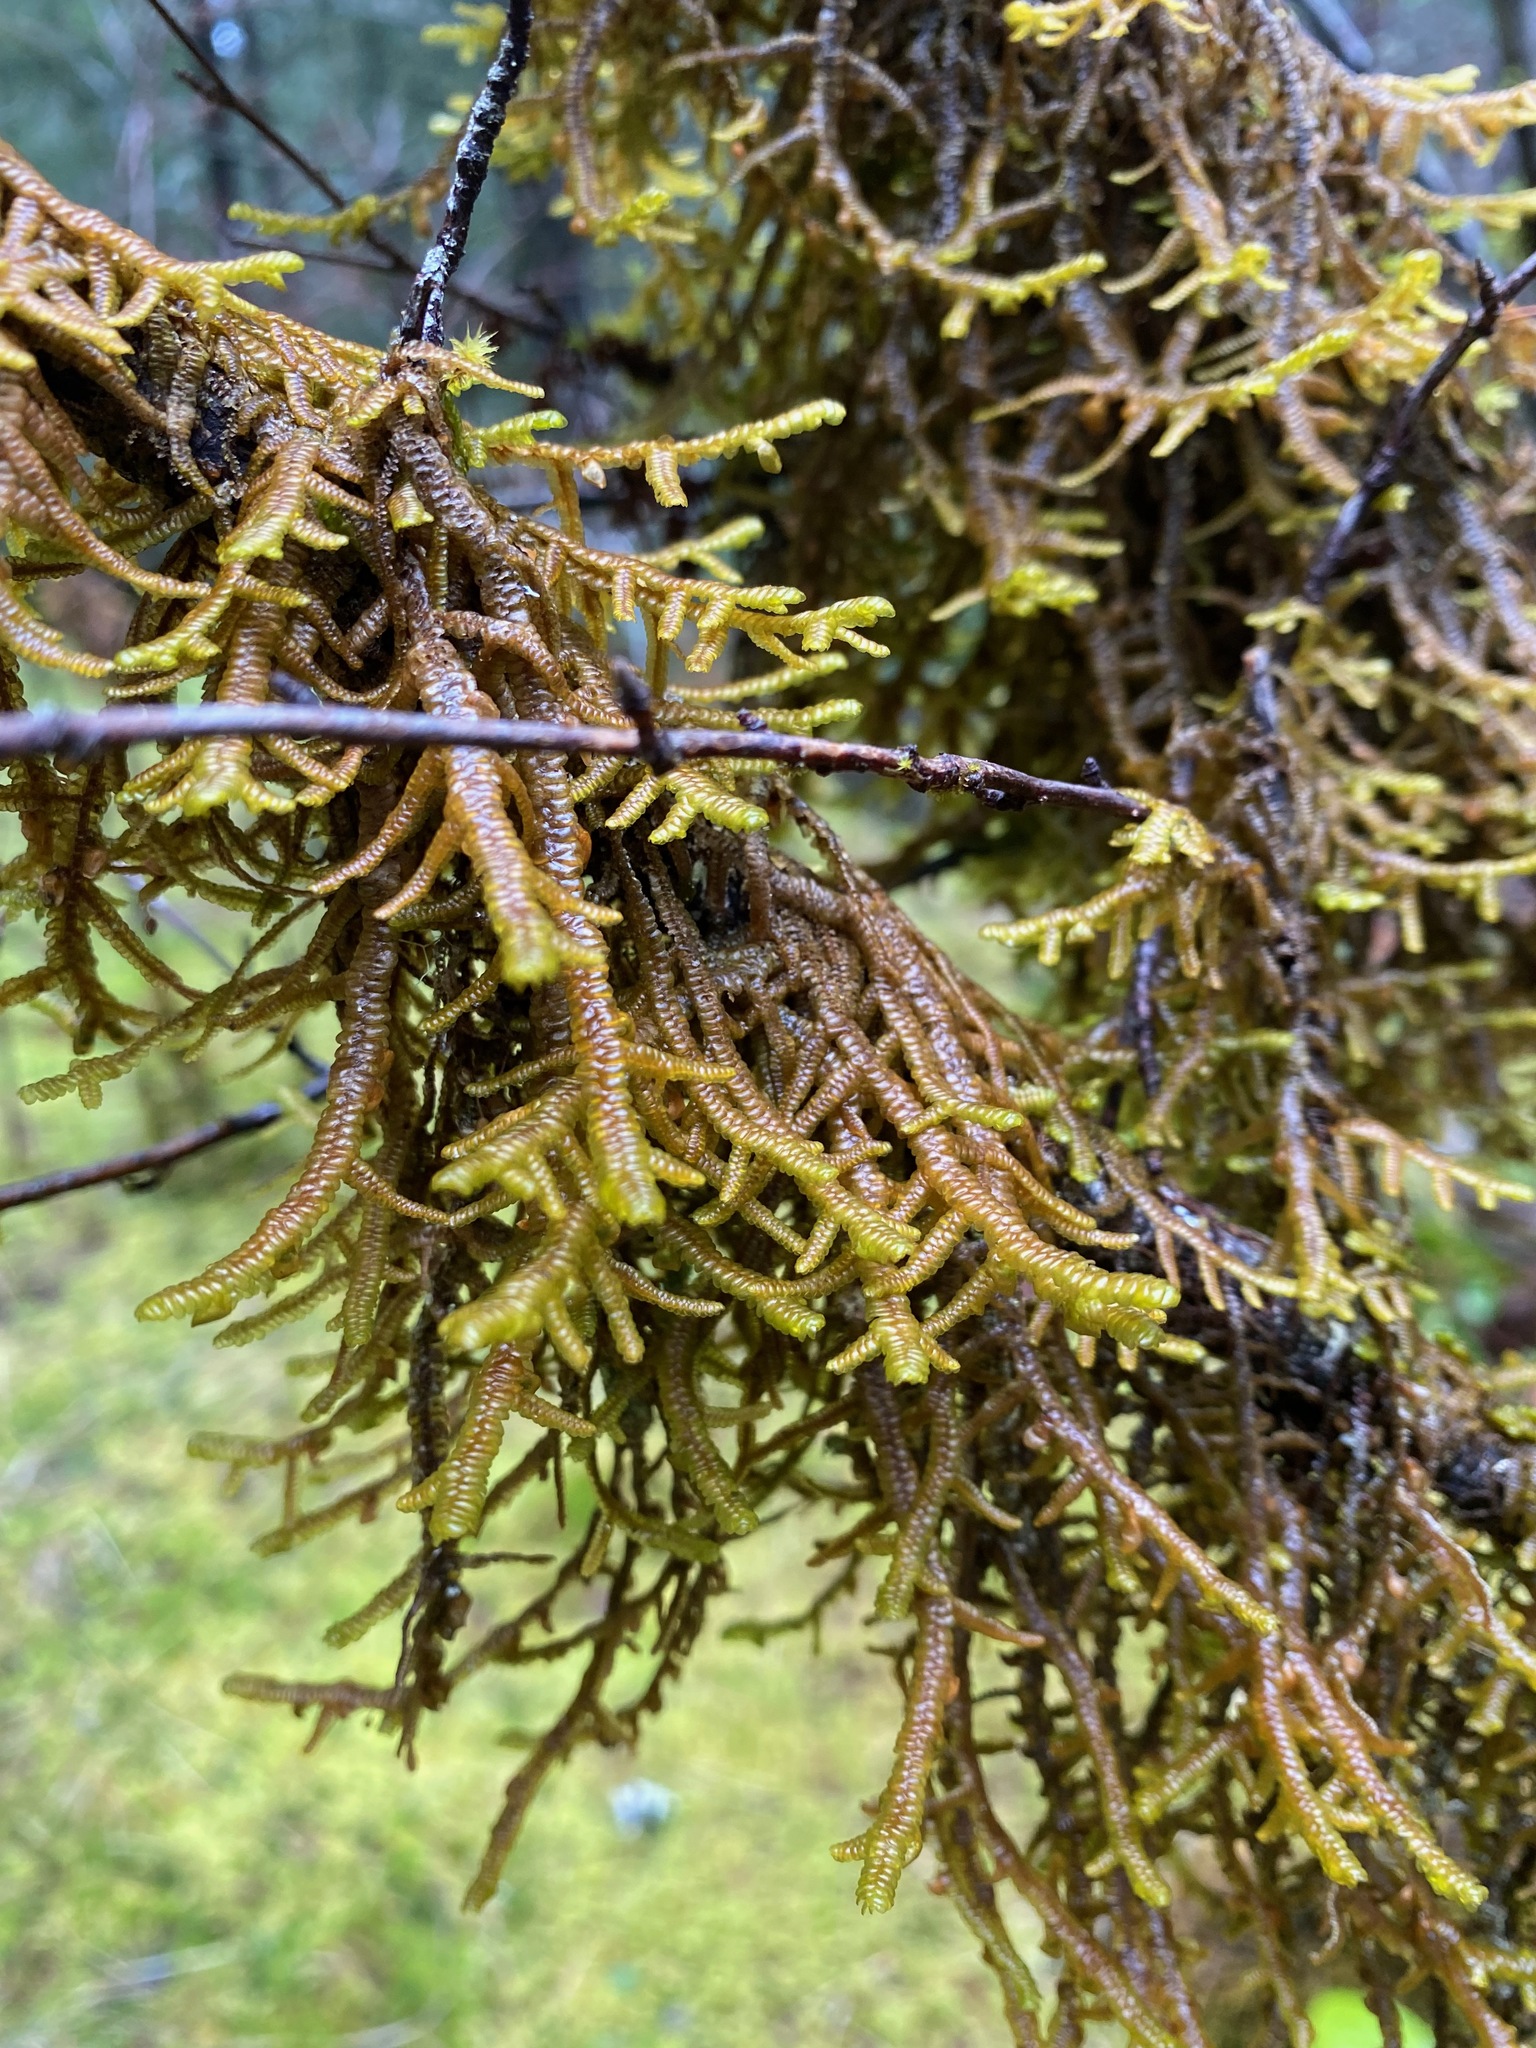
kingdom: Plantae
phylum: Marchantiophyta
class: Jungermanniopsida
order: Porellales
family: Porellaceae
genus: Porella
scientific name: Porella navicularis
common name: Tree ruffle liverwort
